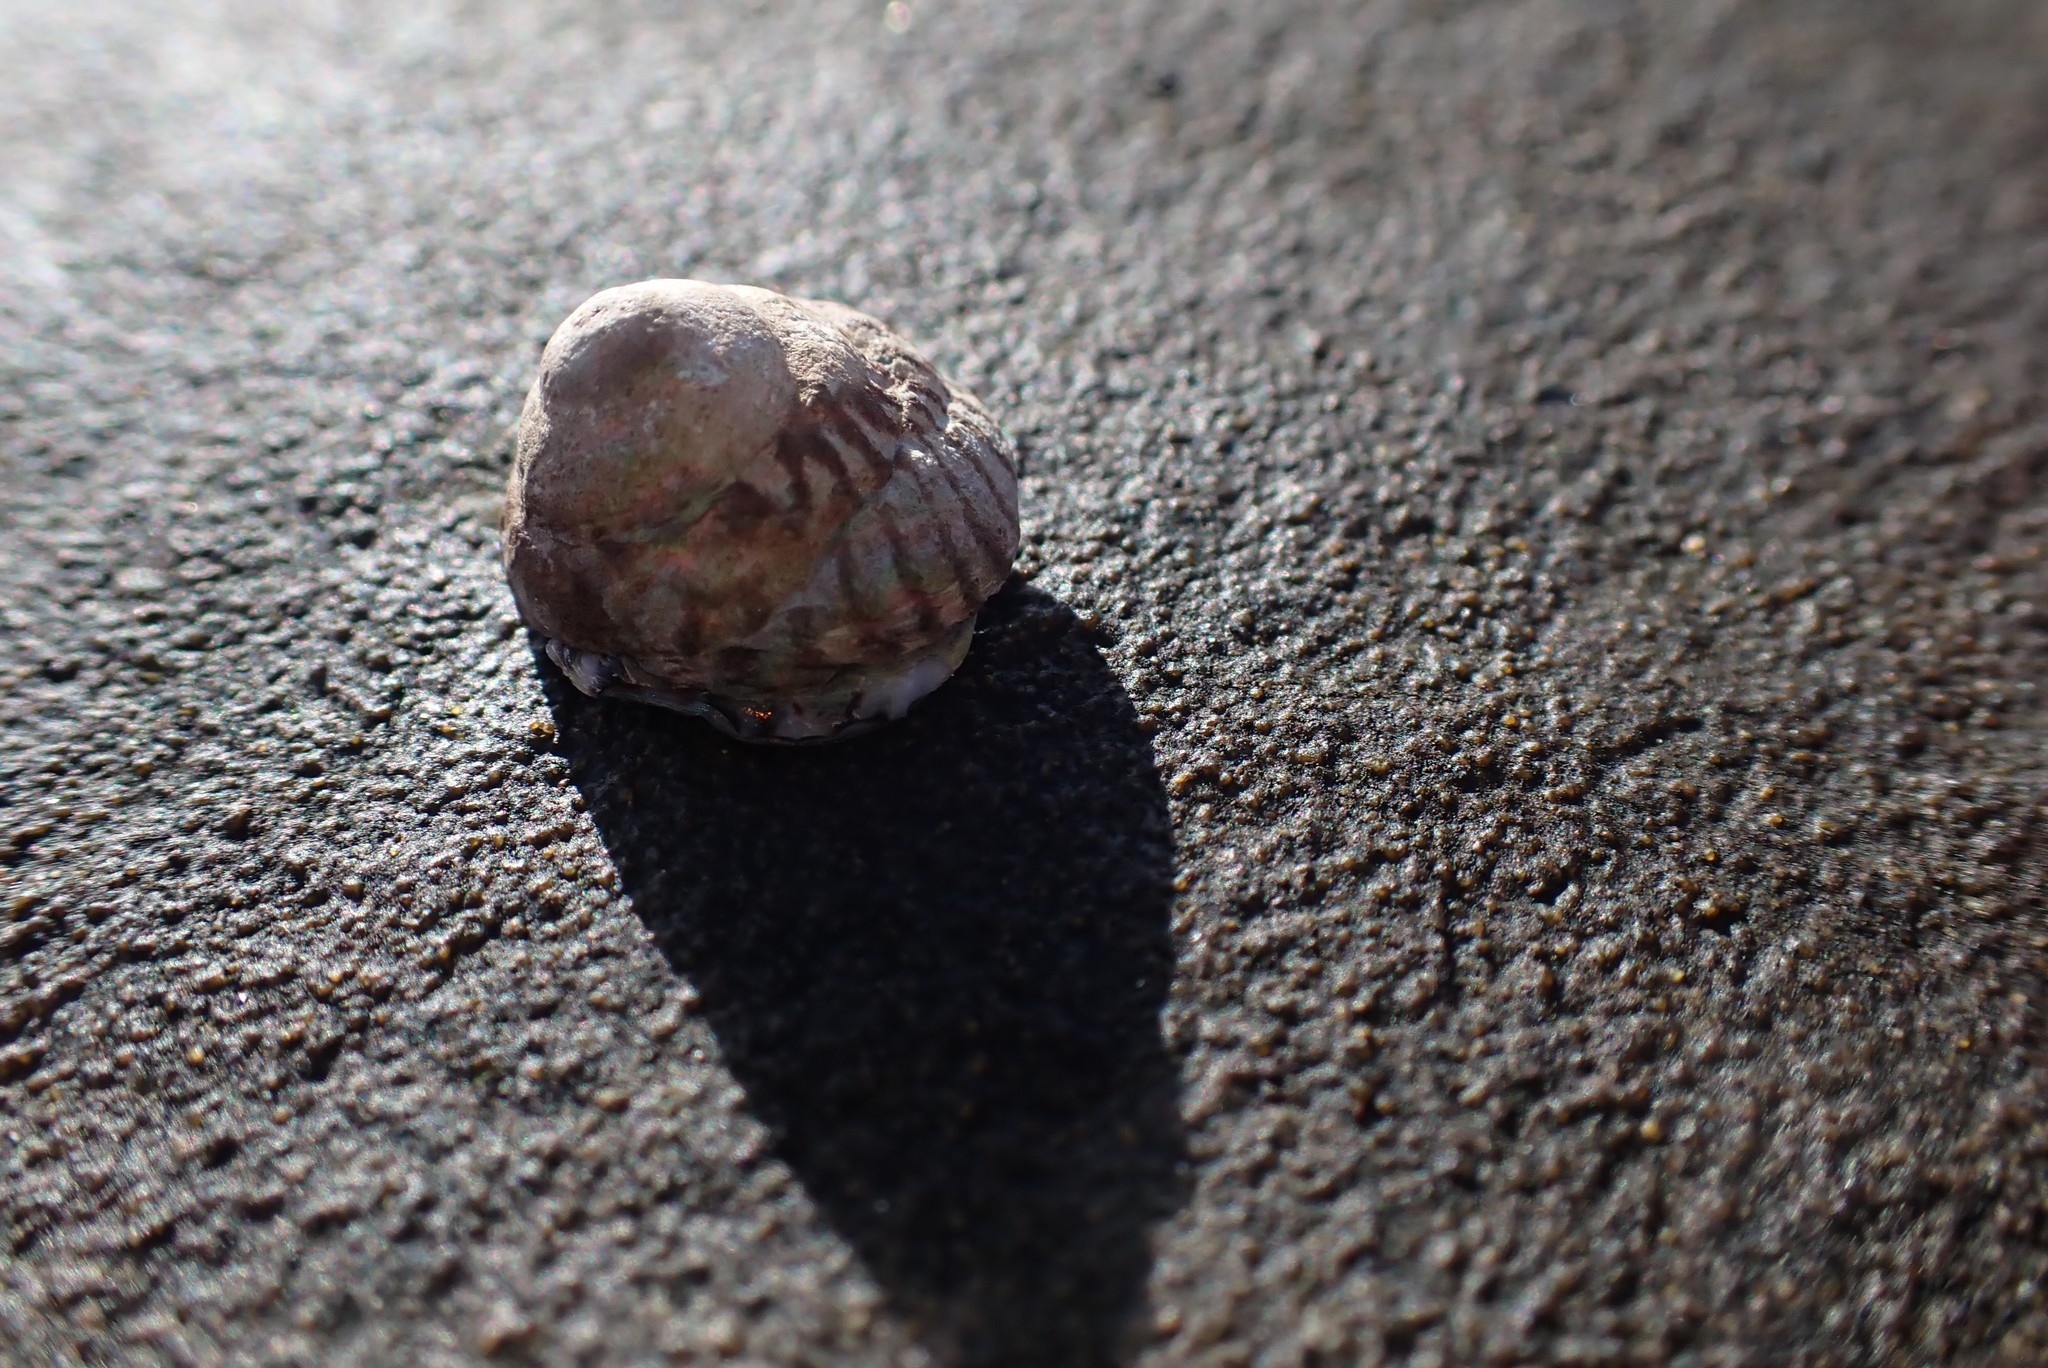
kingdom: Animalia
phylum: Mollusca
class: Gastropoda
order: Littorinimorpha
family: Littorinidae
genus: Bembicium
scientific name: Bembicium nanum
